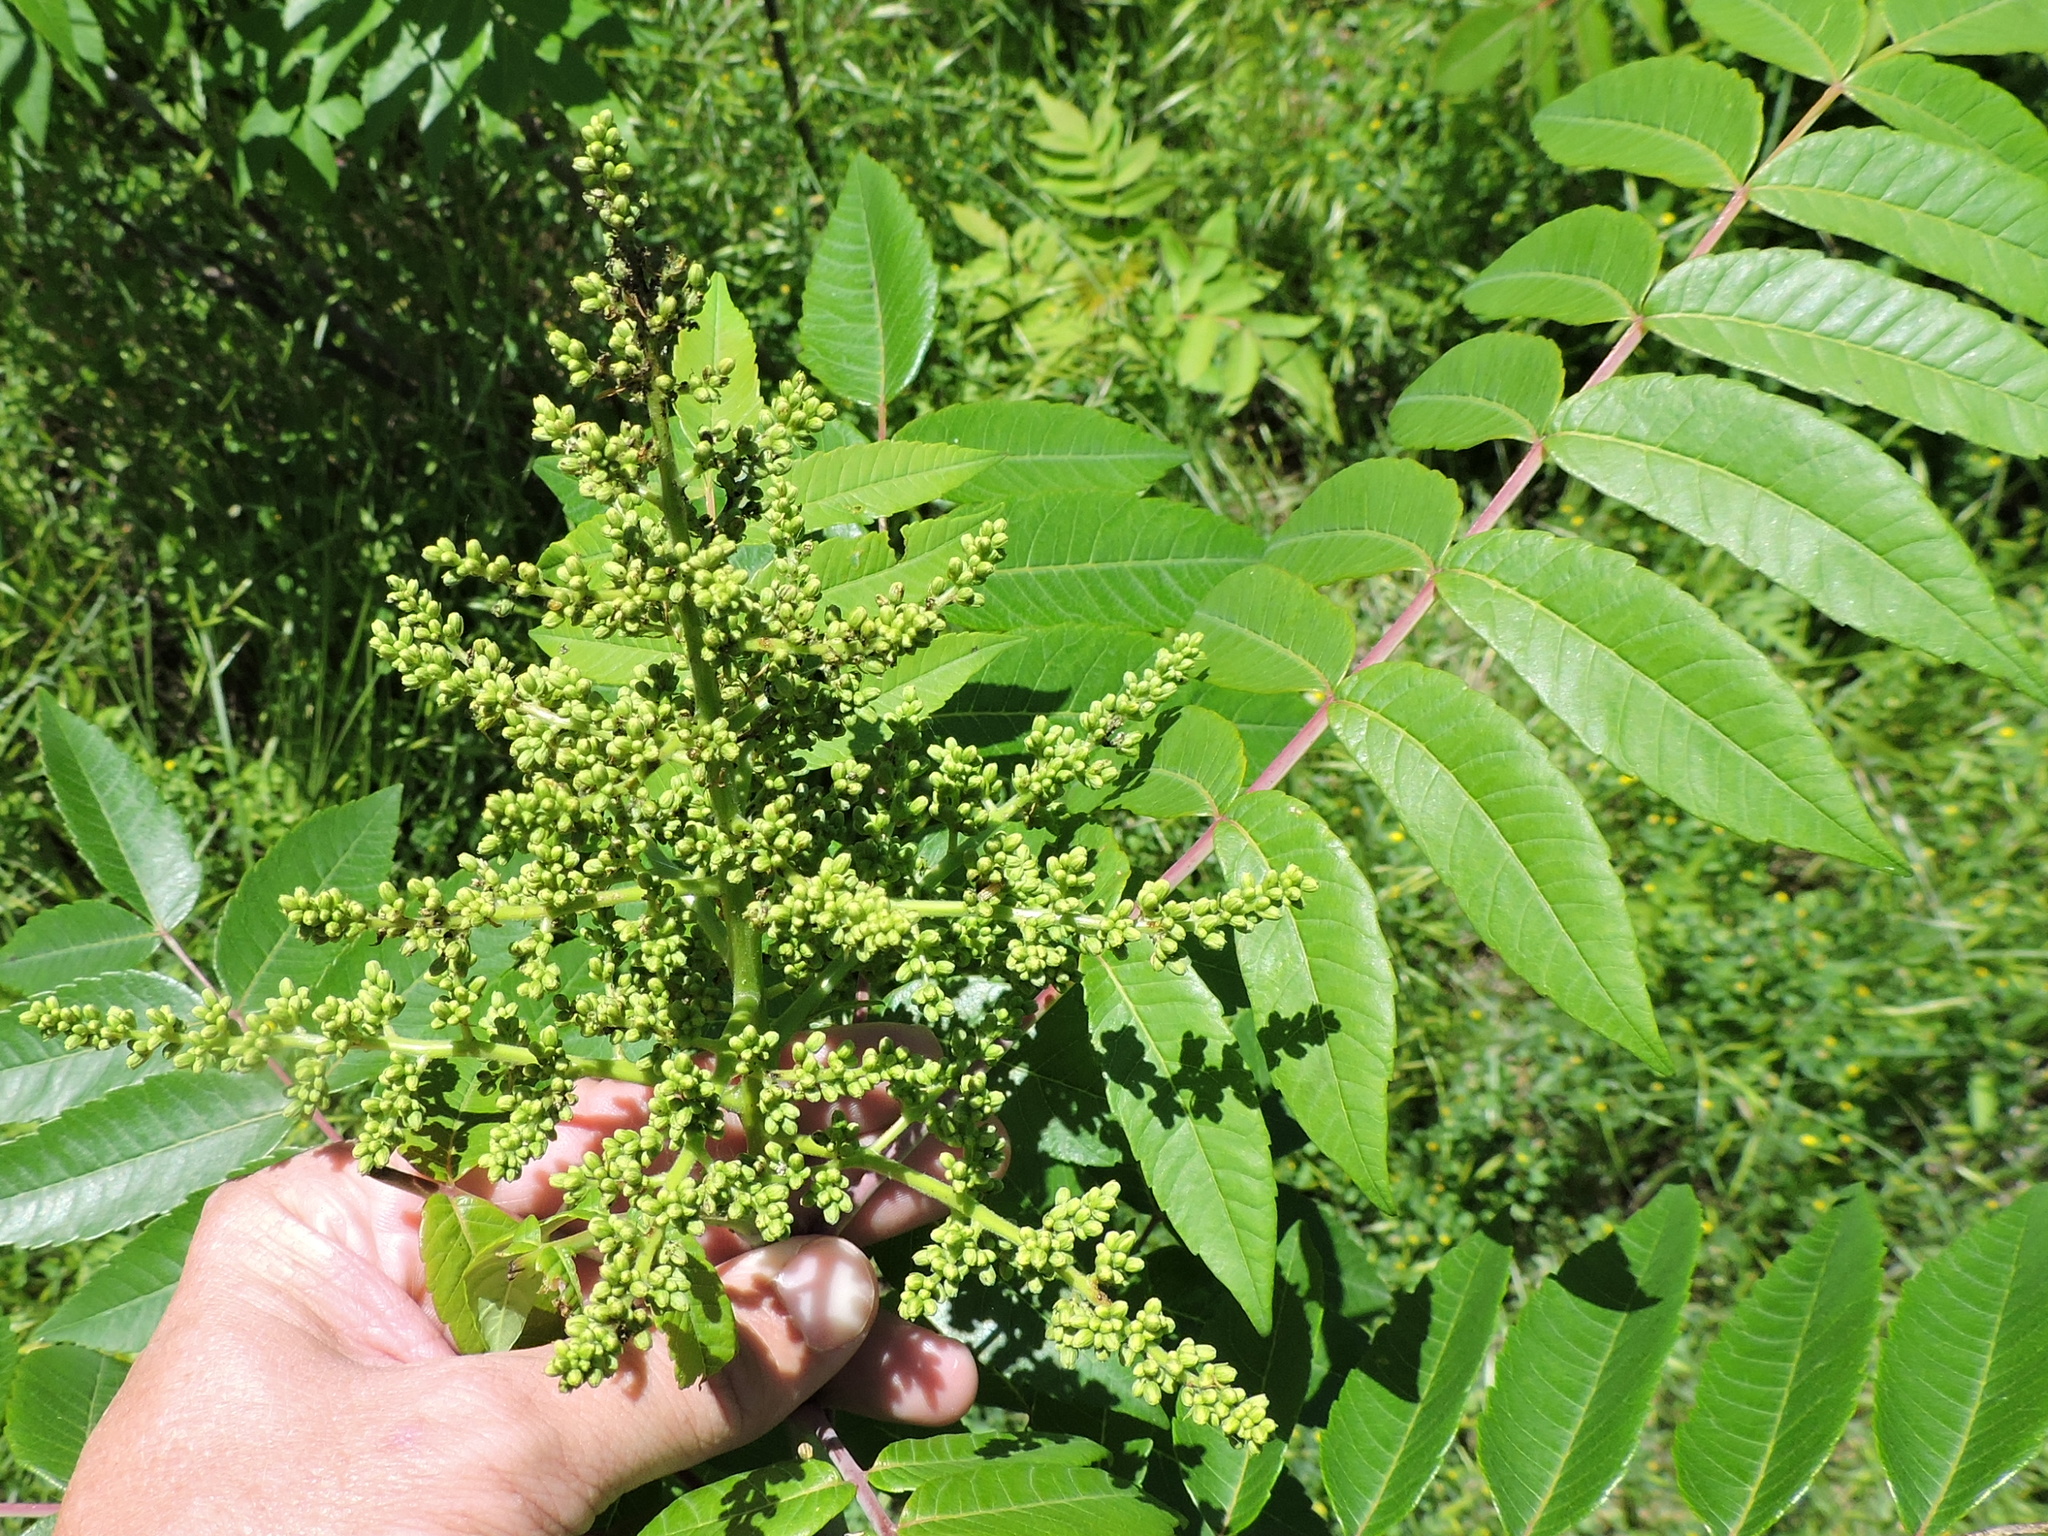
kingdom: Plantae
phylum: Tracheophyta
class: Magnoliopsida
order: Sapindales
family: Anacardiaceae
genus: Rhus
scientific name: Rhus glabra
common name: Scarlet sumac
